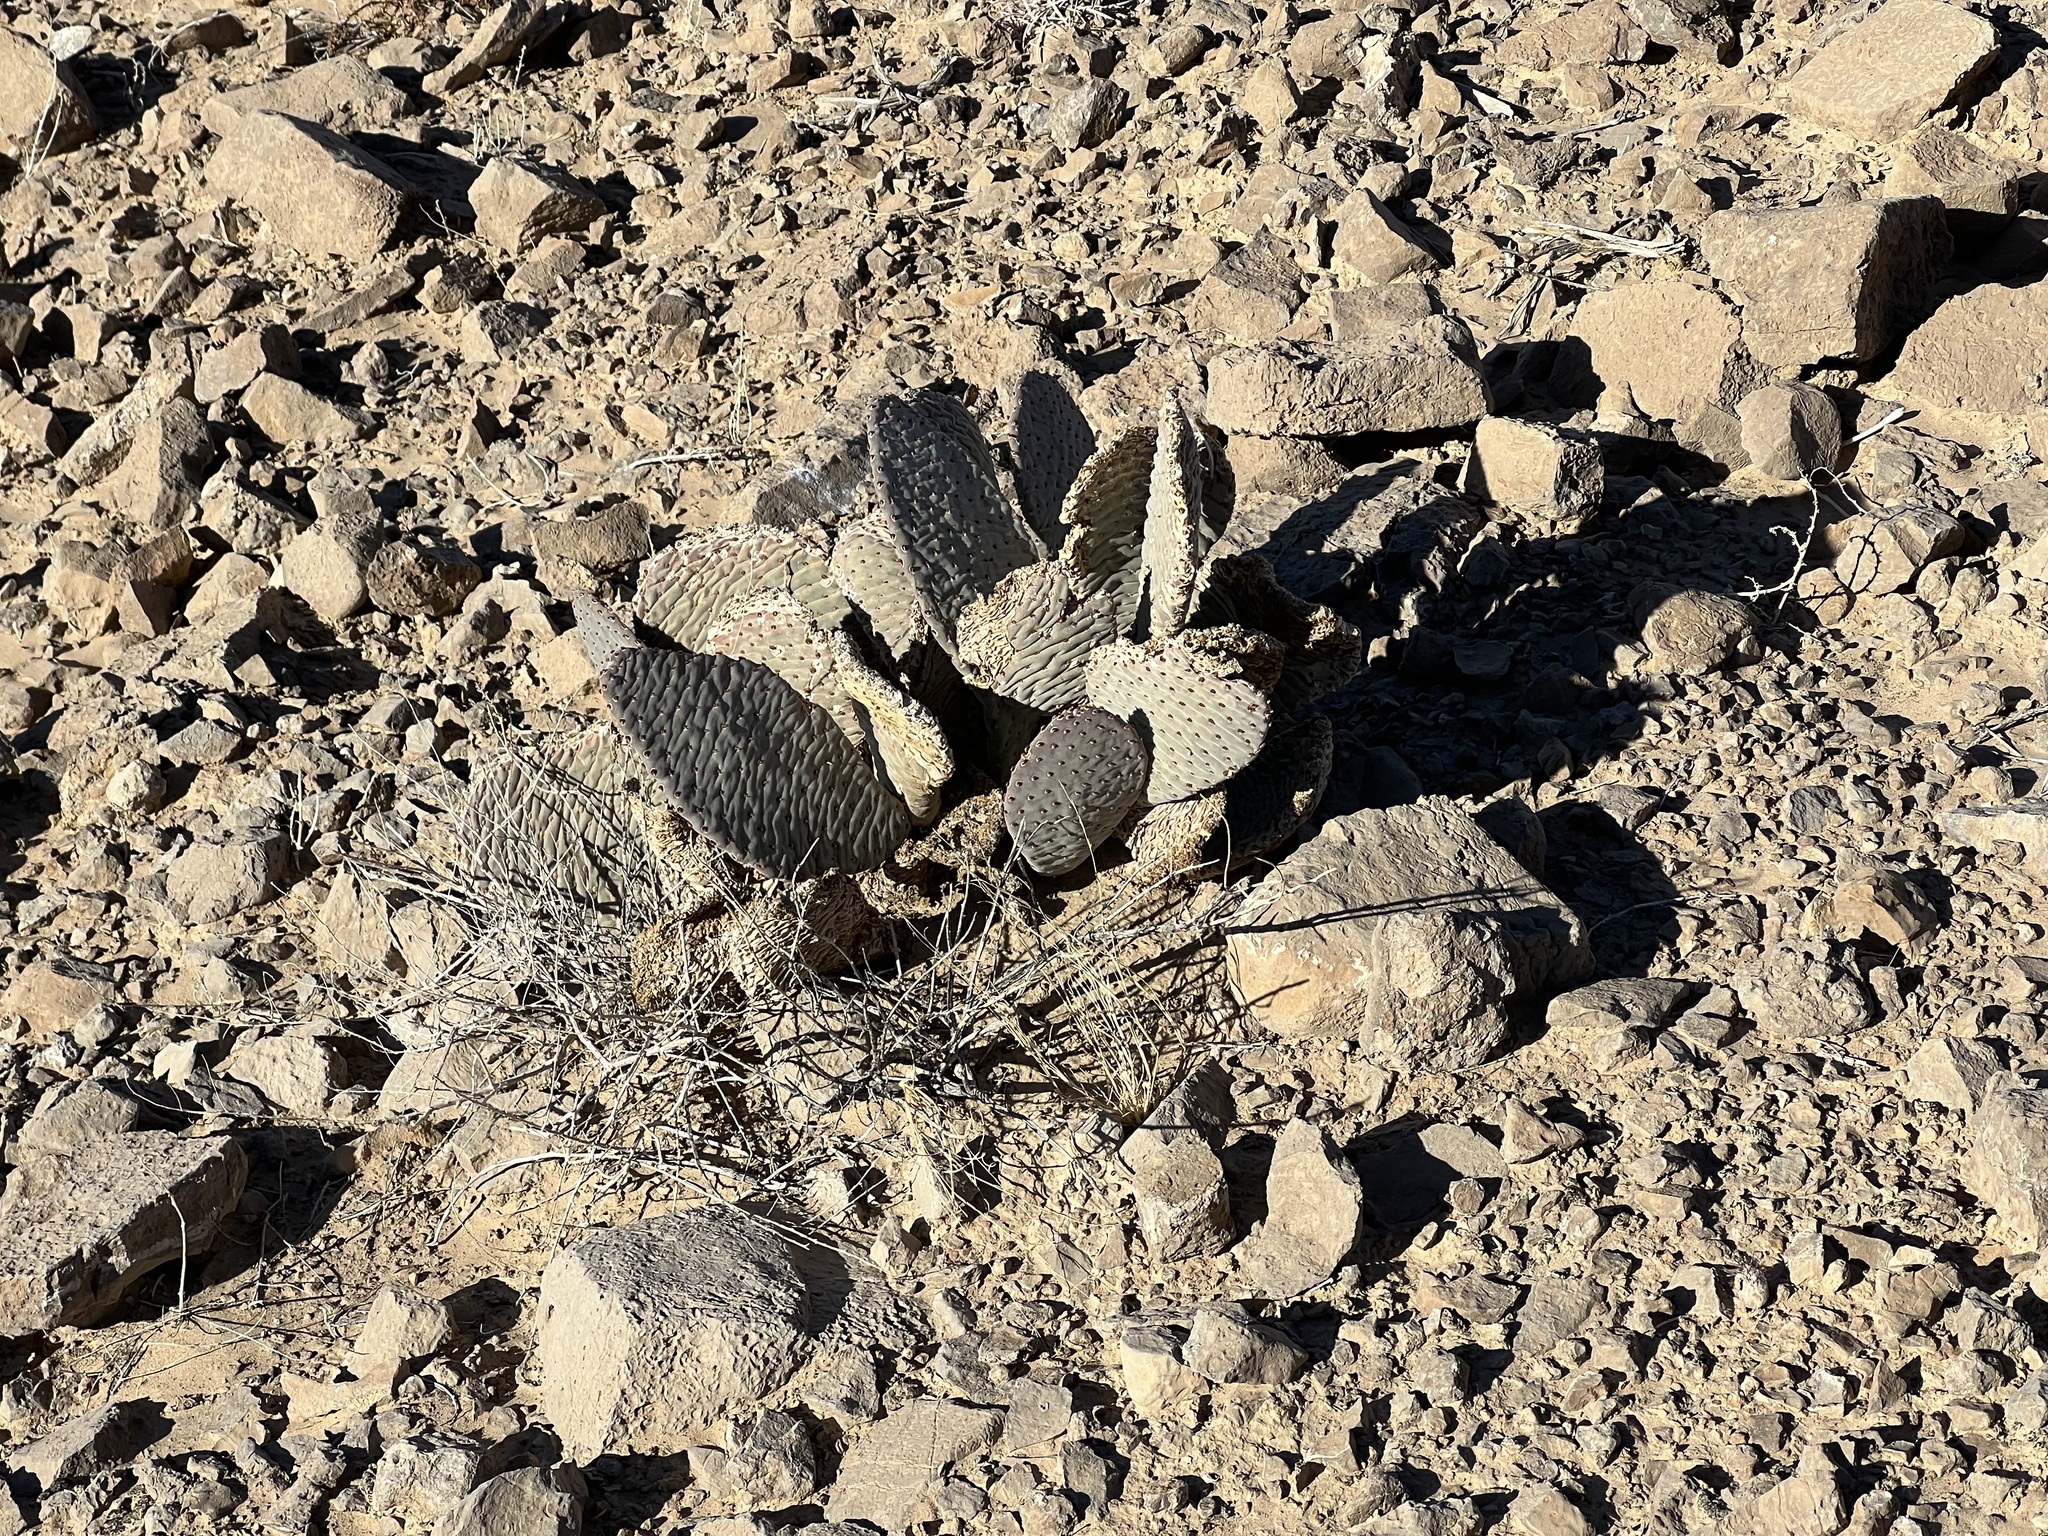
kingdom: Plantae
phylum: Tracheophyta
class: Magnoliopsida
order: Caryophyllales
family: Cactaceae
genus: Opuntia
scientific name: Opuntia basilaris
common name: Beavertail prickly-pear
